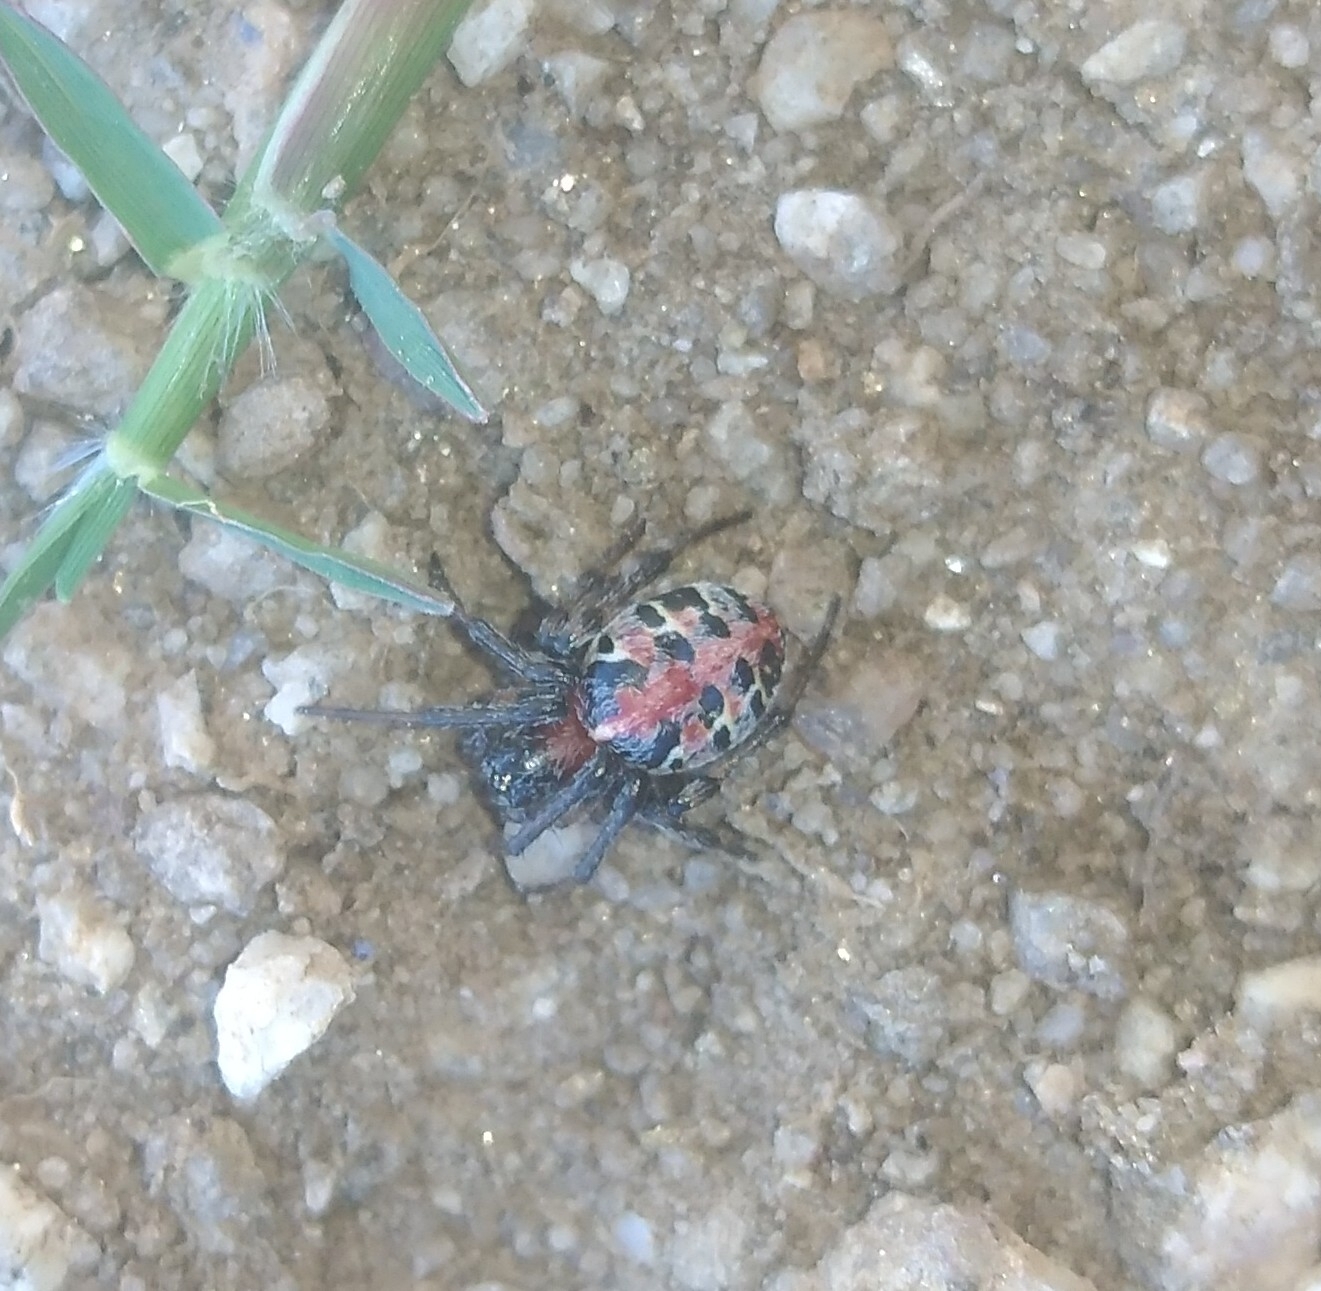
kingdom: Animalia
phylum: Arthropoda
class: Arachnida
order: Araneae
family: Araneidae
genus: Alpaida
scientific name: Alpaida versicolor
